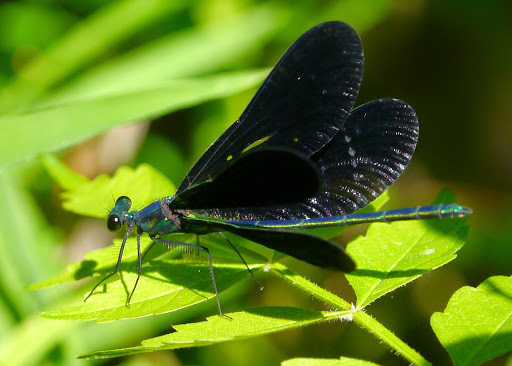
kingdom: Animalia
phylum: Arthropoda
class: Insecta
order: Odonata
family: Calopterygidae
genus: Calopteryx
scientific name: Calopteryx maculata
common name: Ebony jewelwing
